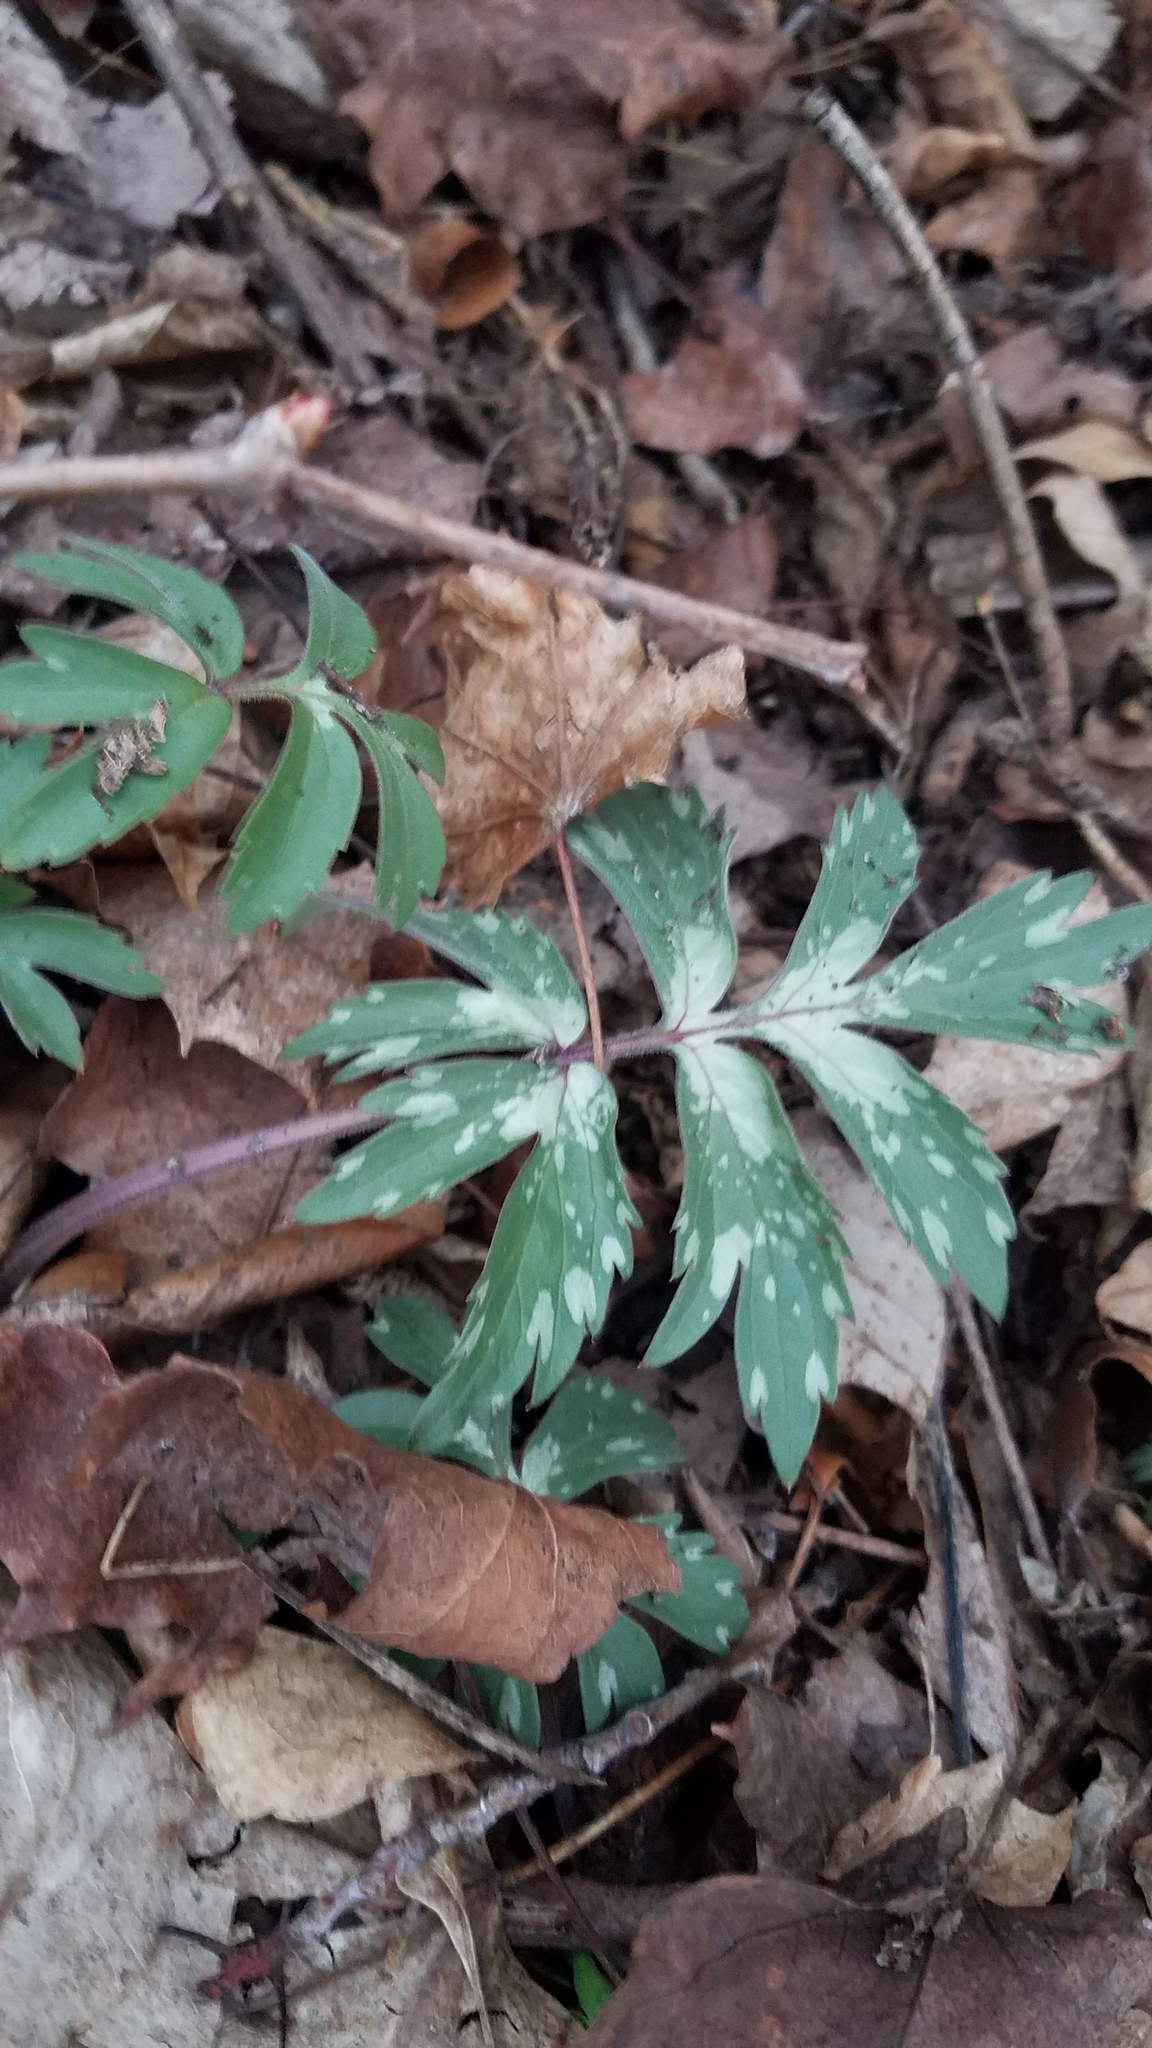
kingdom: Plantae
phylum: Tracheophyta
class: Magnoliopsida
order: Boraginales
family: Hydrophyllaceae
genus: Hydrophyllum
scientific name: Hydrophyllum virginianum
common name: Virginia waterleaf
